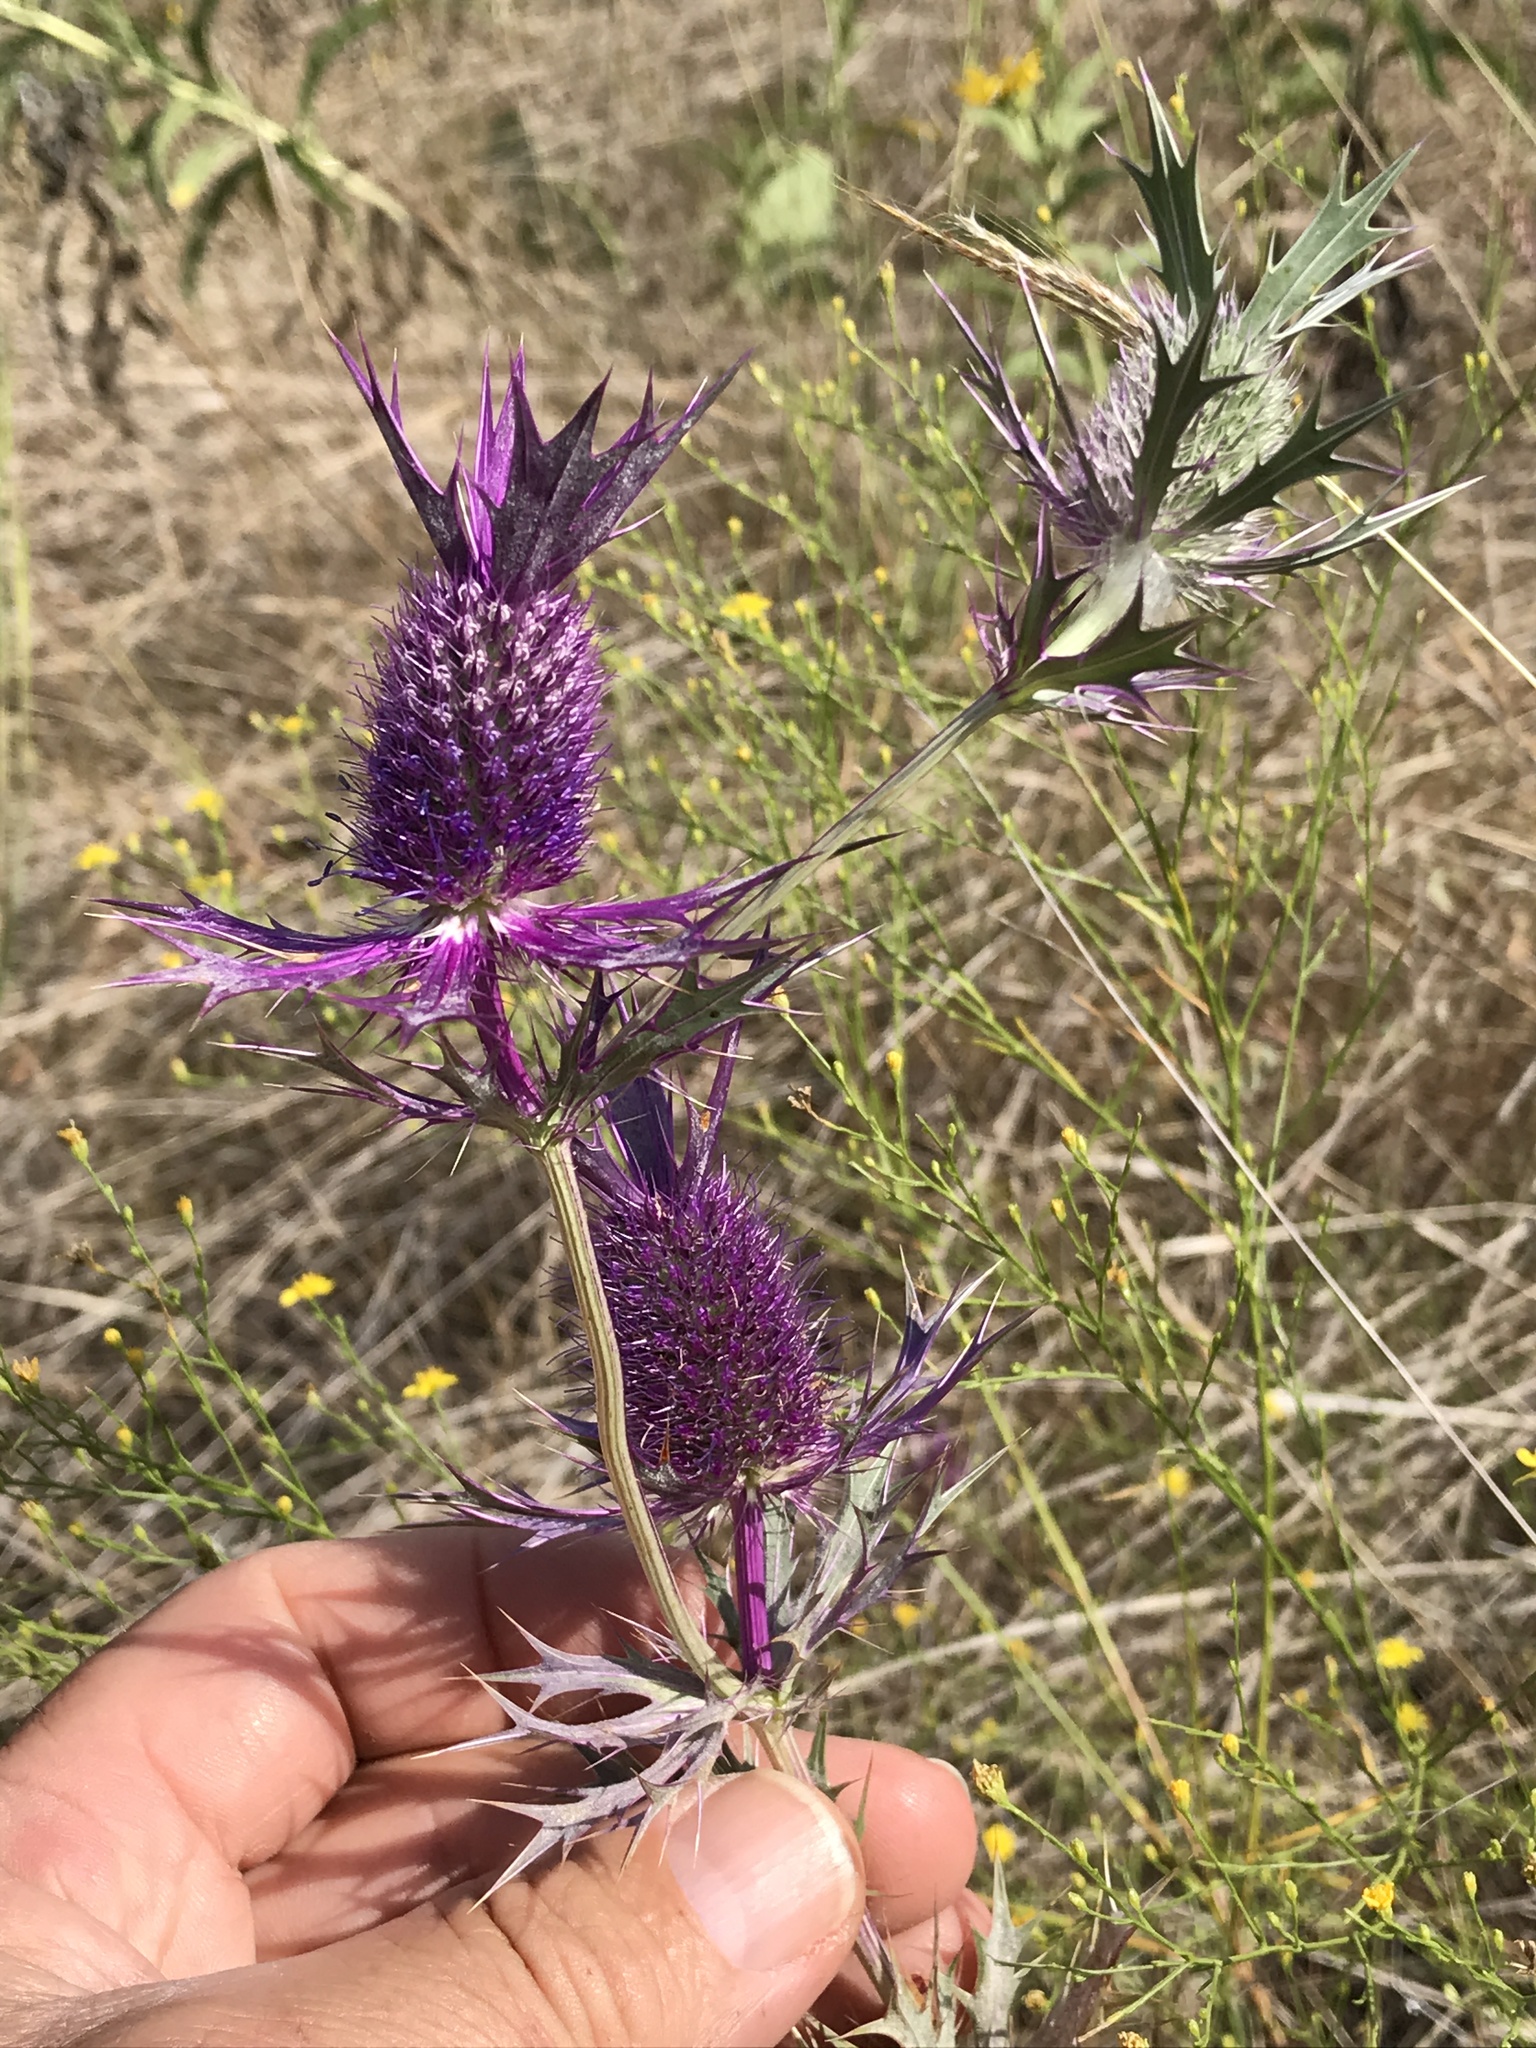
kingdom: Plantae
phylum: Tracheophyta
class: Magnoliopsida
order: Apiales
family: Apiaceae
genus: Eryngium
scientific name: Eryngium leavenworthii
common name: Leavenworth's eryngo
